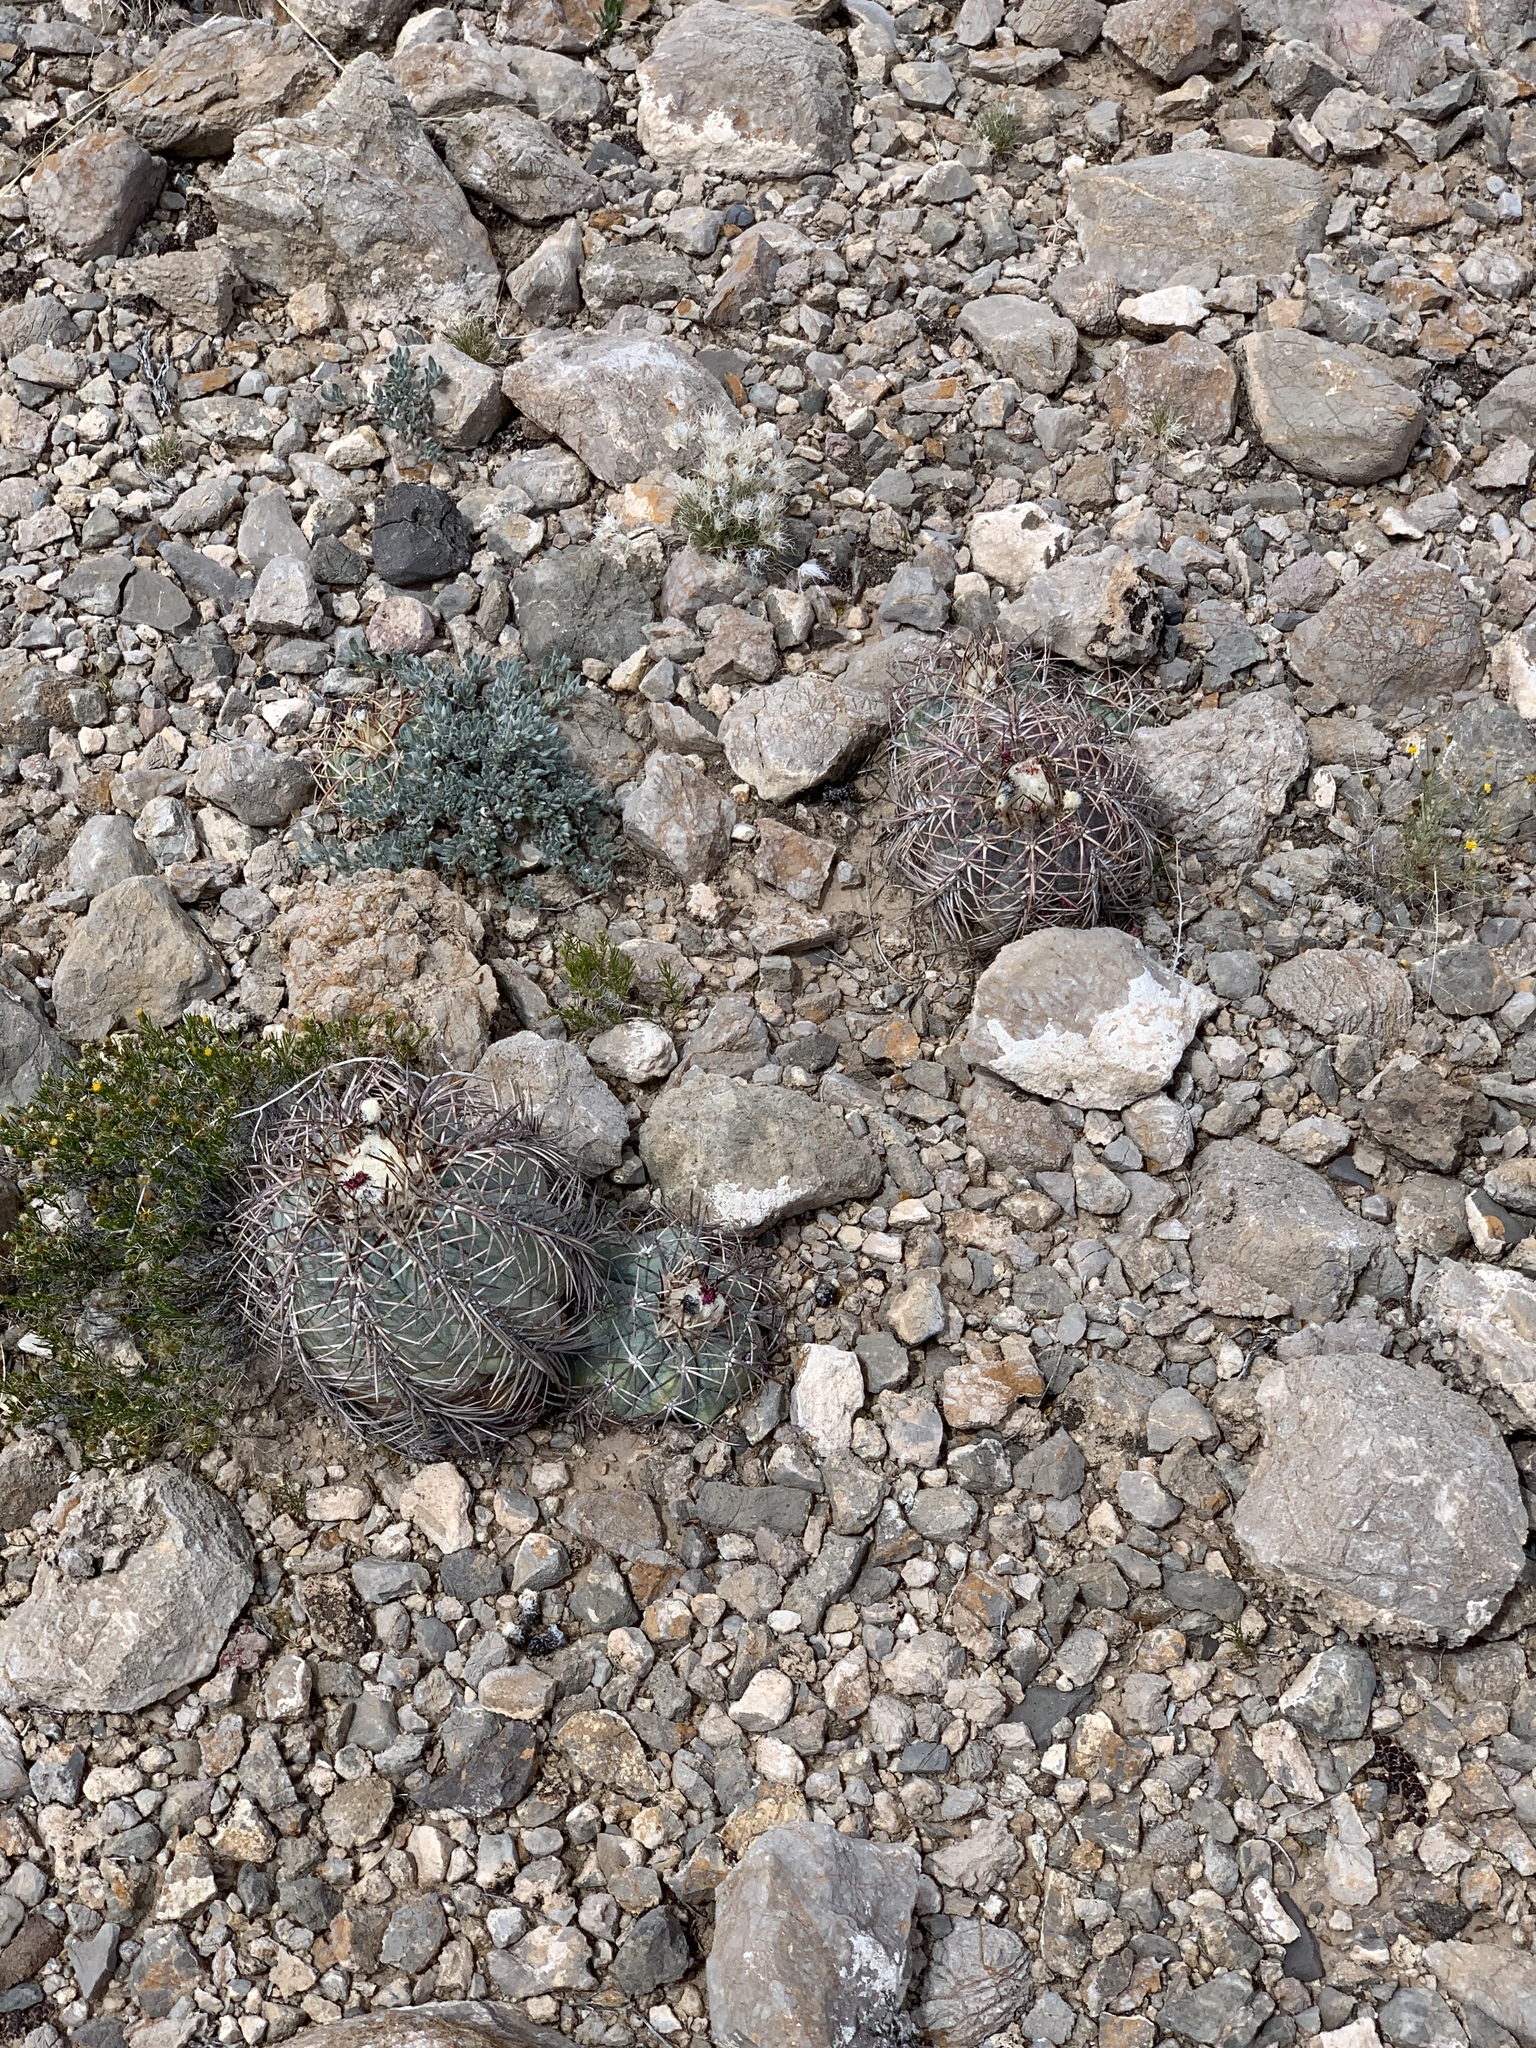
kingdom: Plantae
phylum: Tracheophyta
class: Magnoliopsida
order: Caryophyllales
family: Cactaceae
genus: Echinocactus
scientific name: Echinocactus horizonthalonius
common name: Devilshead
